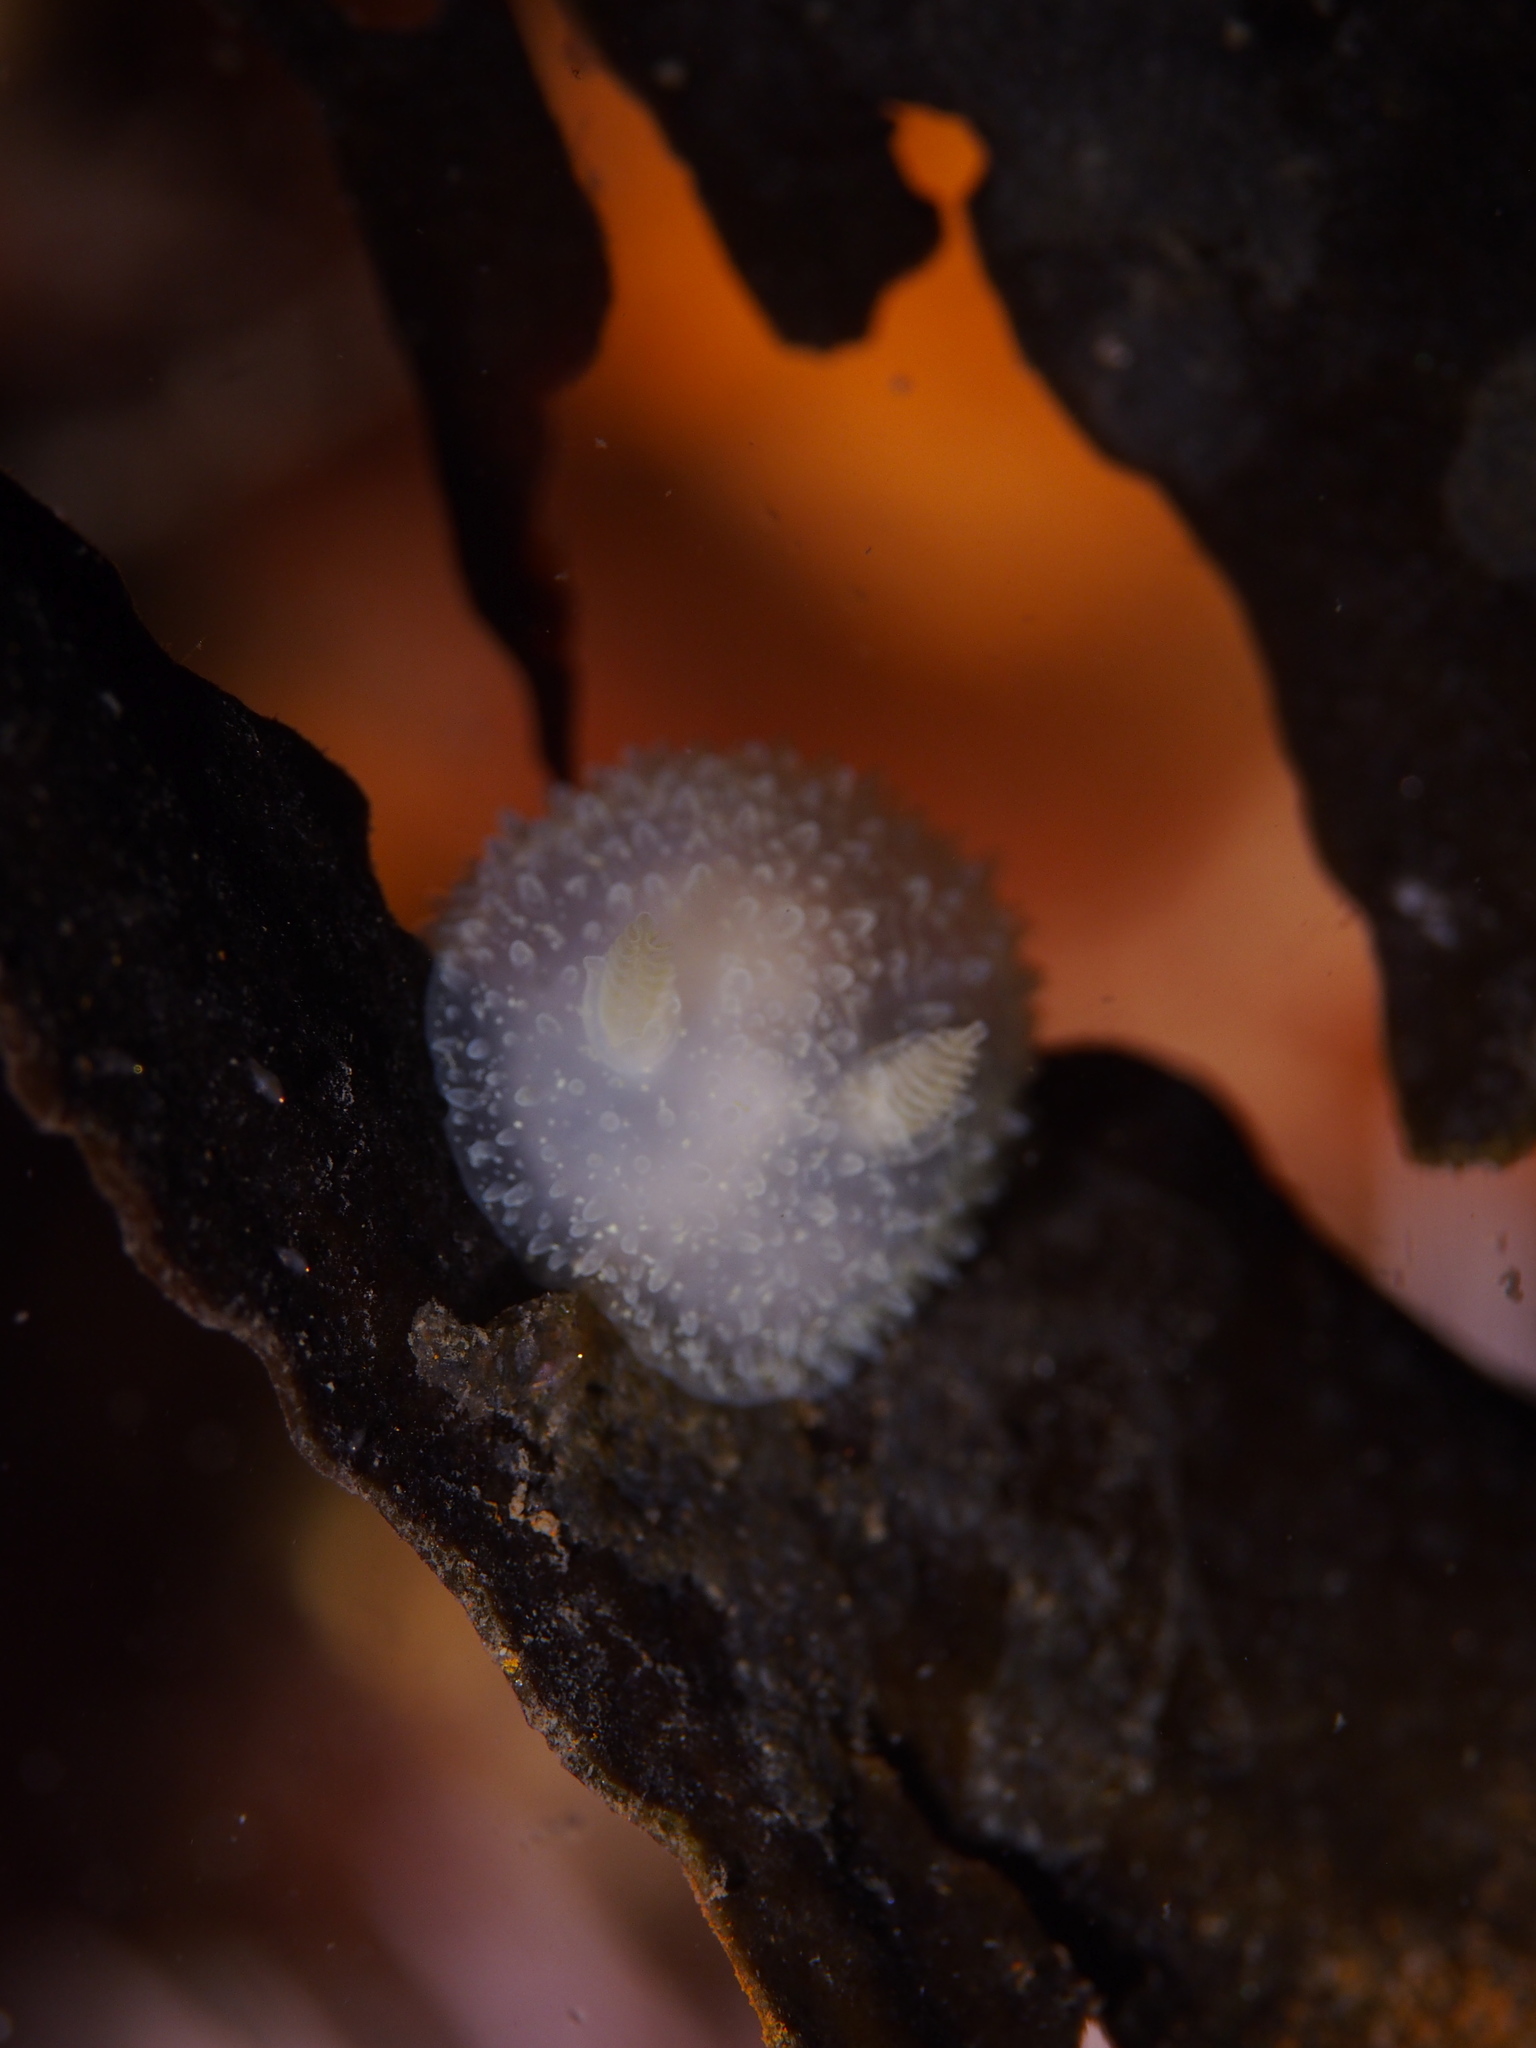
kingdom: Animalia
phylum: Mollusca
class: Gastropoda
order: Nudibranchia
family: Onchidorididae
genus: Acanthodoris
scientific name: Acanthodoris pilosa
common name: Hairy spiny doris
